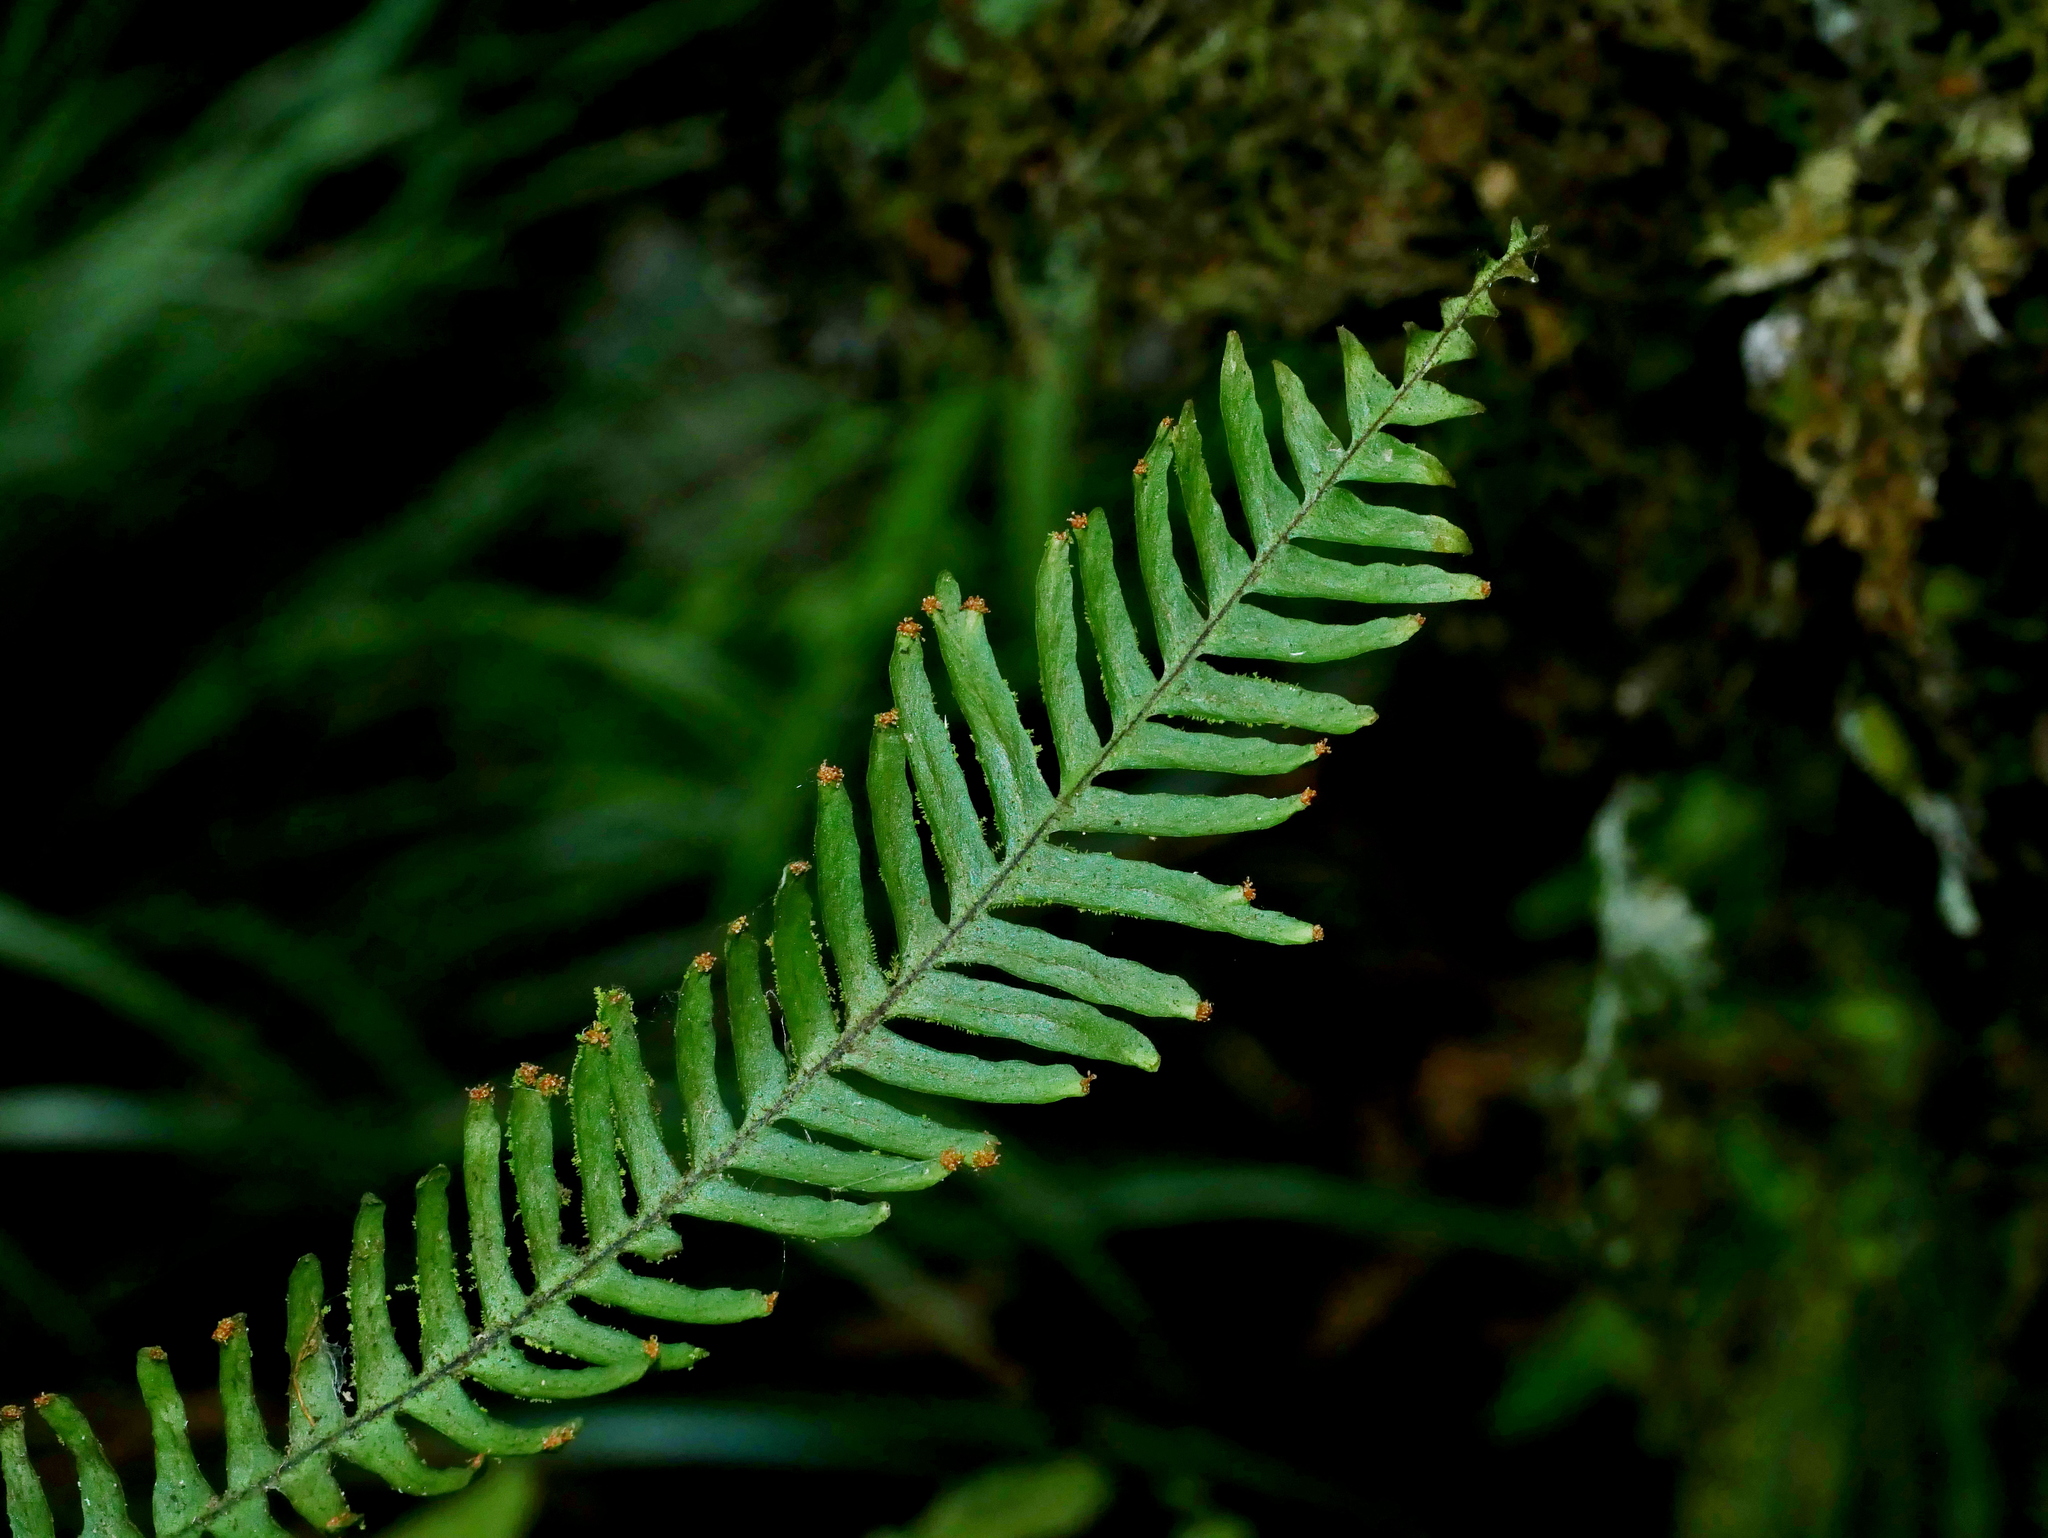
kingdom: Plantae
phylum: Tracheophyta
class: Polypodiopsida
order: Polypodiales
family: Polypodiaceae
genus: Prosaptia
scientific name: Prosaptia formosana
